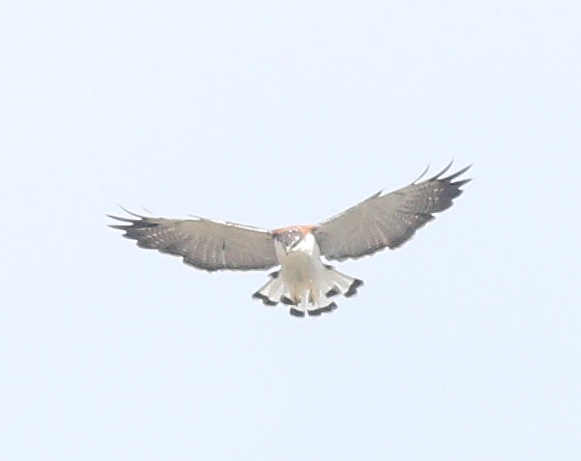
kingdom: Animalia
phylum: Chordata
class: Aves
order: Accipitriformes
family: Accipitridae
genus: Buteo
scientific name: Buteo polyosoma
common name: Variable hawk
